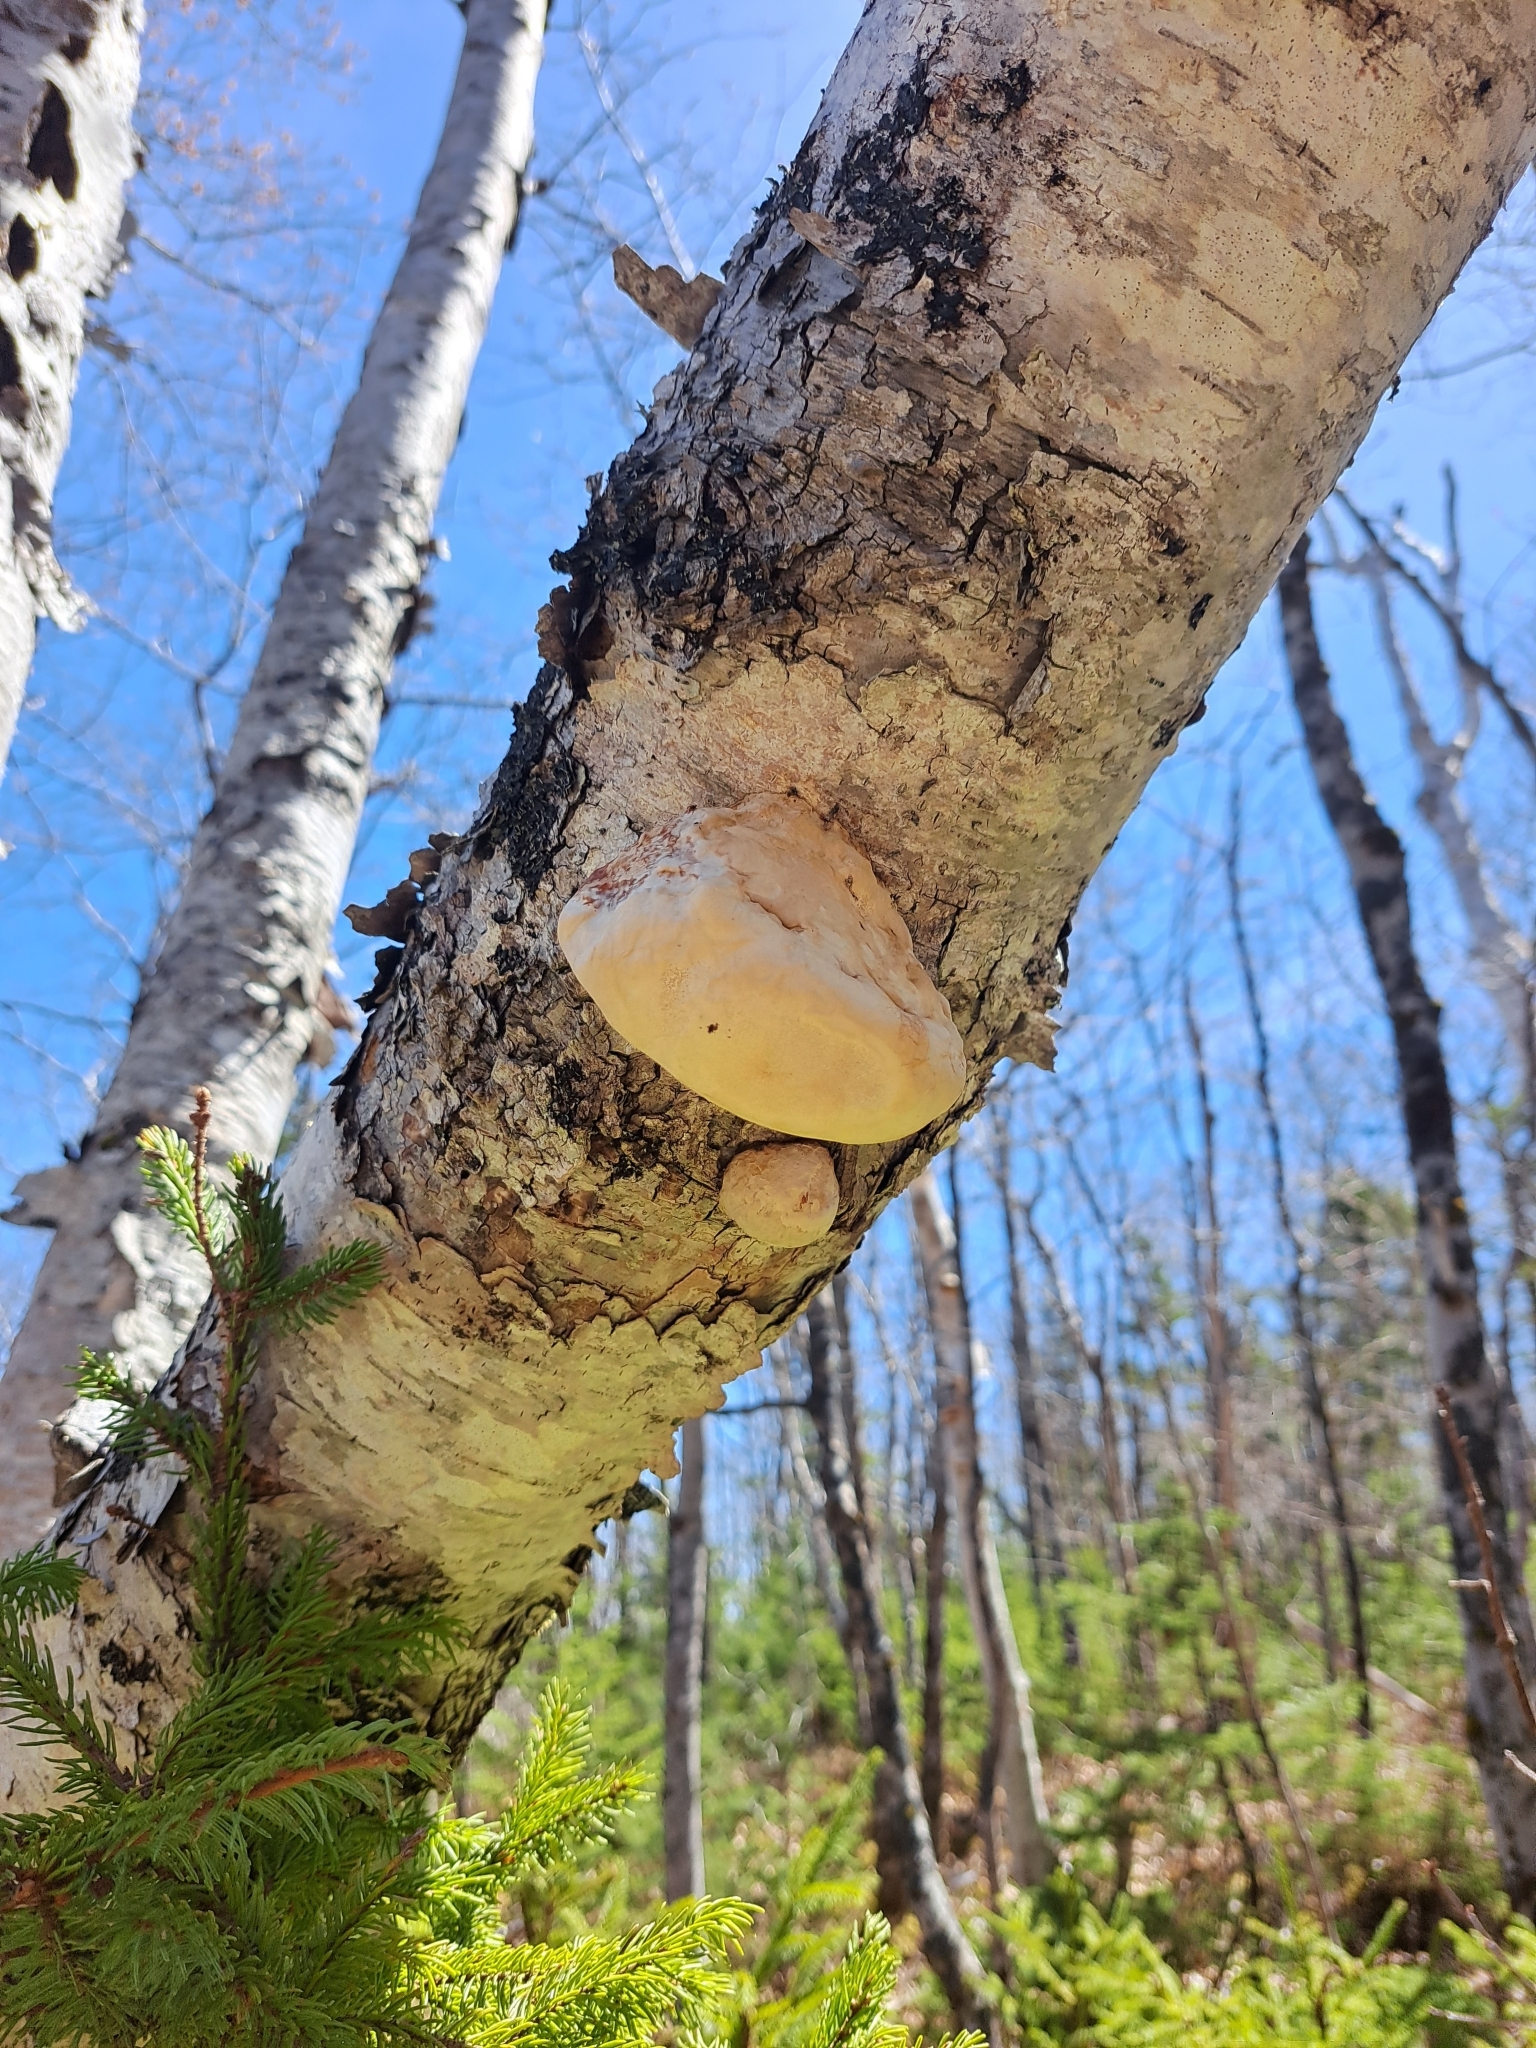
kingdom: Fungi
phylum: Basidiomycota
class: Agaricomycetes
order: Polyporales
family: Fomitopsidaceae
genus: Fomitopsis
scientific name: Fomitopsis betulina
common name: Birch polypore
